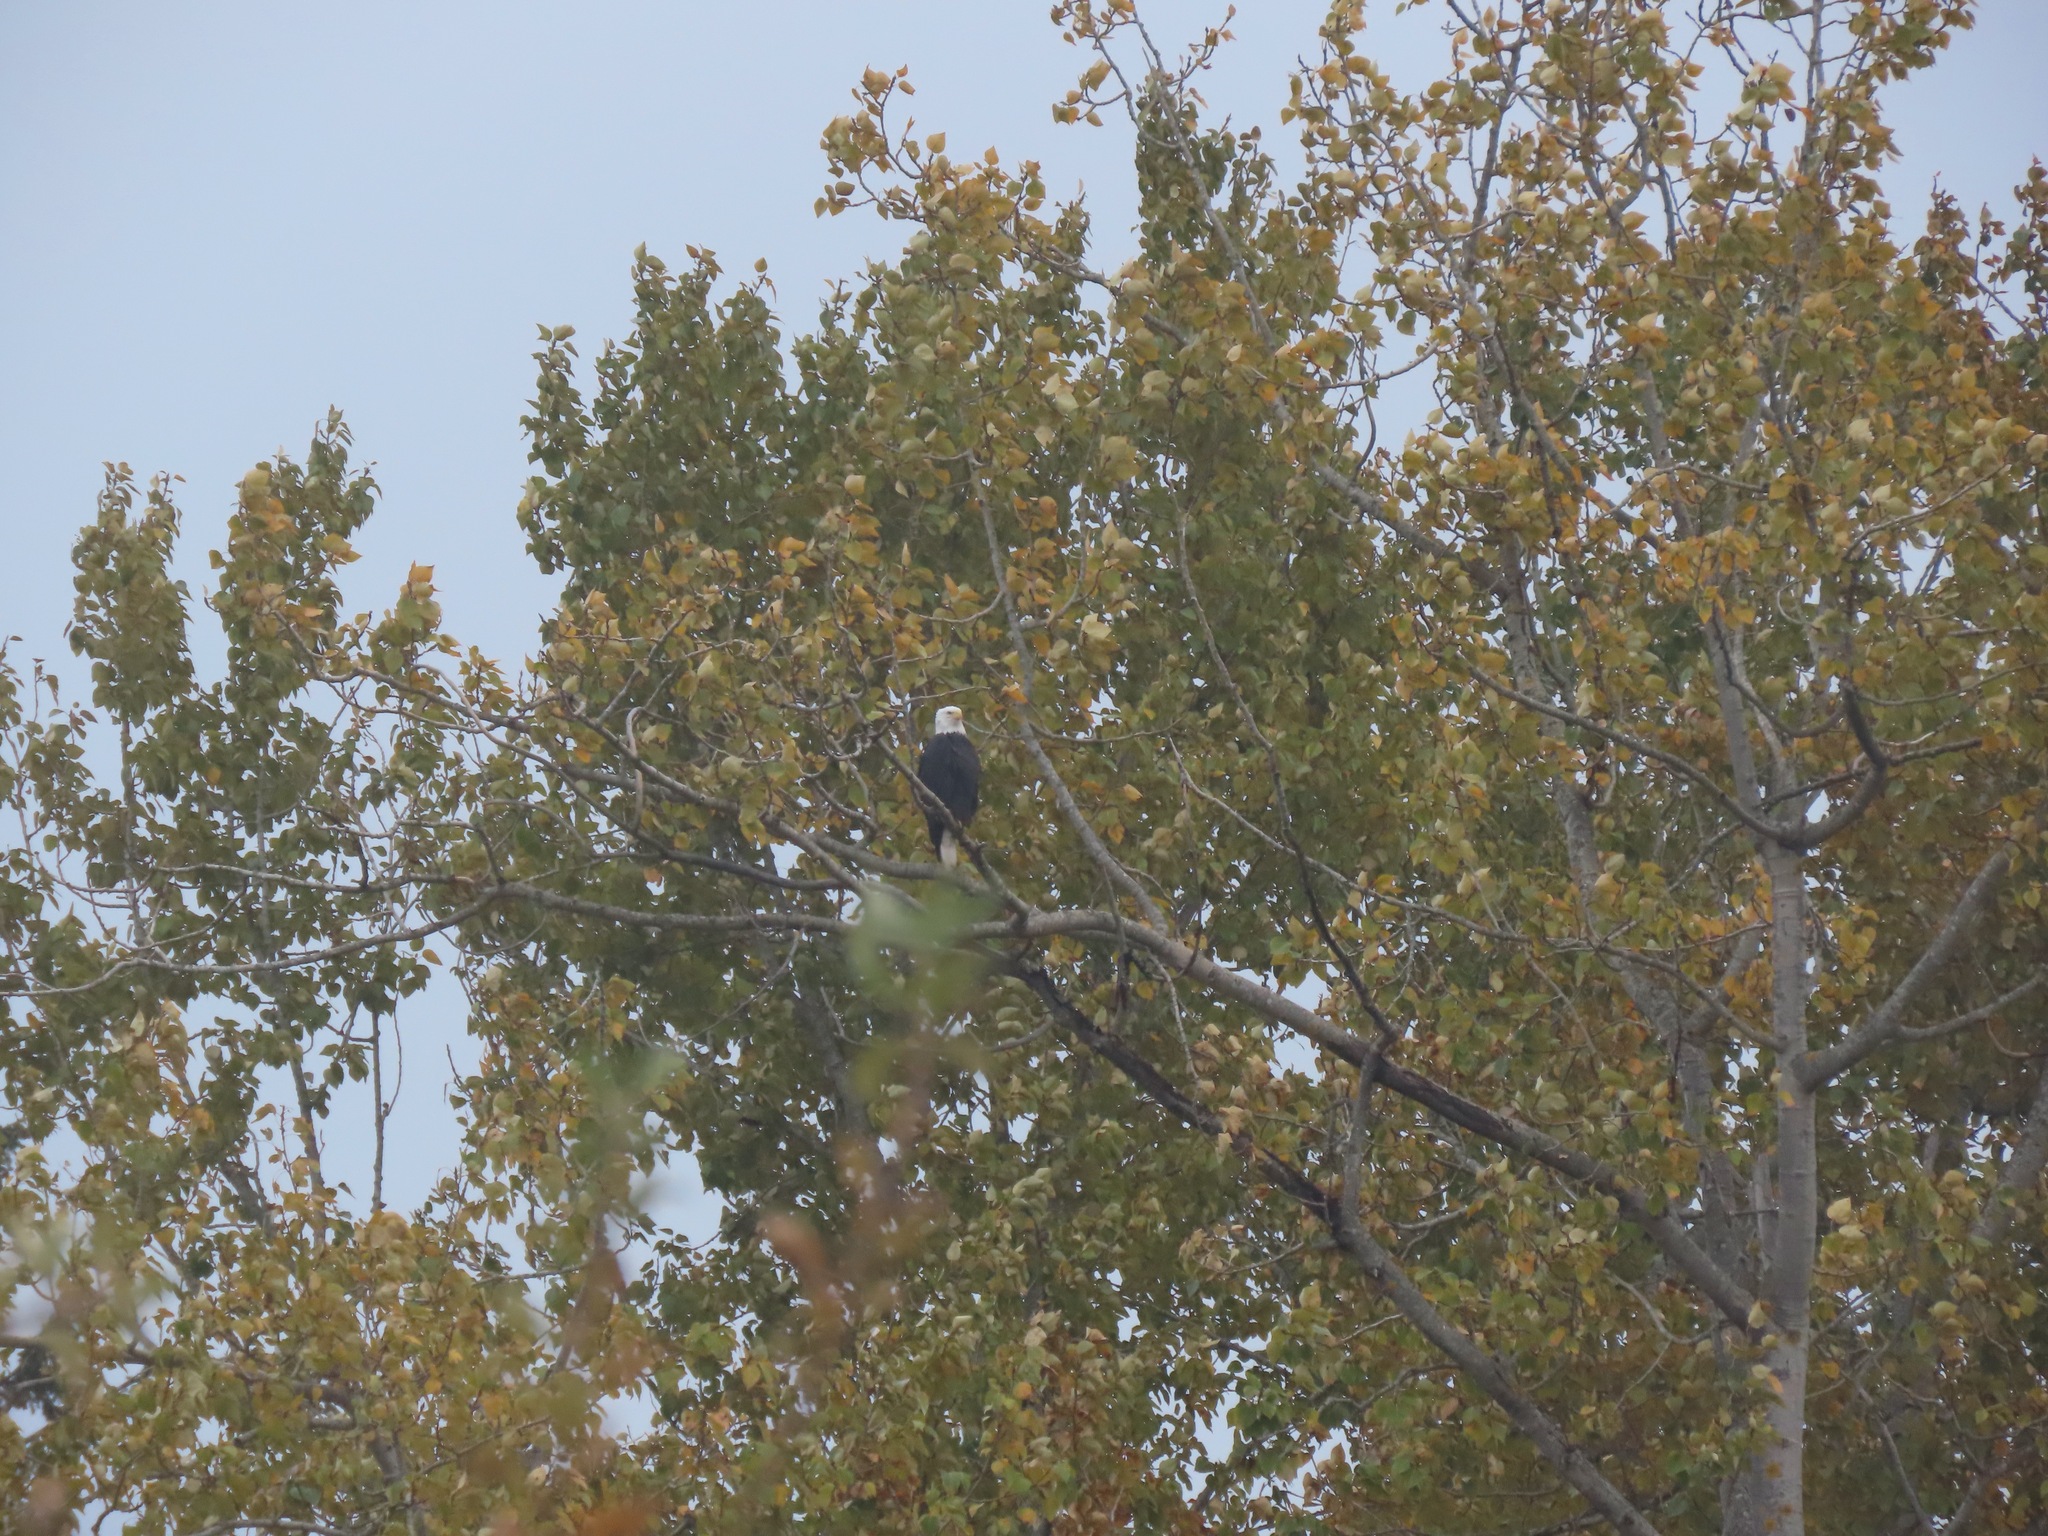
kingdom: Animalia
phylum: Chordata
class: Aves
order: Accipitriformes
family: Accipitridae
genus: Haliaeetus
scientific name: Haliaeetus leucocephalus
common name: Bald eagle
